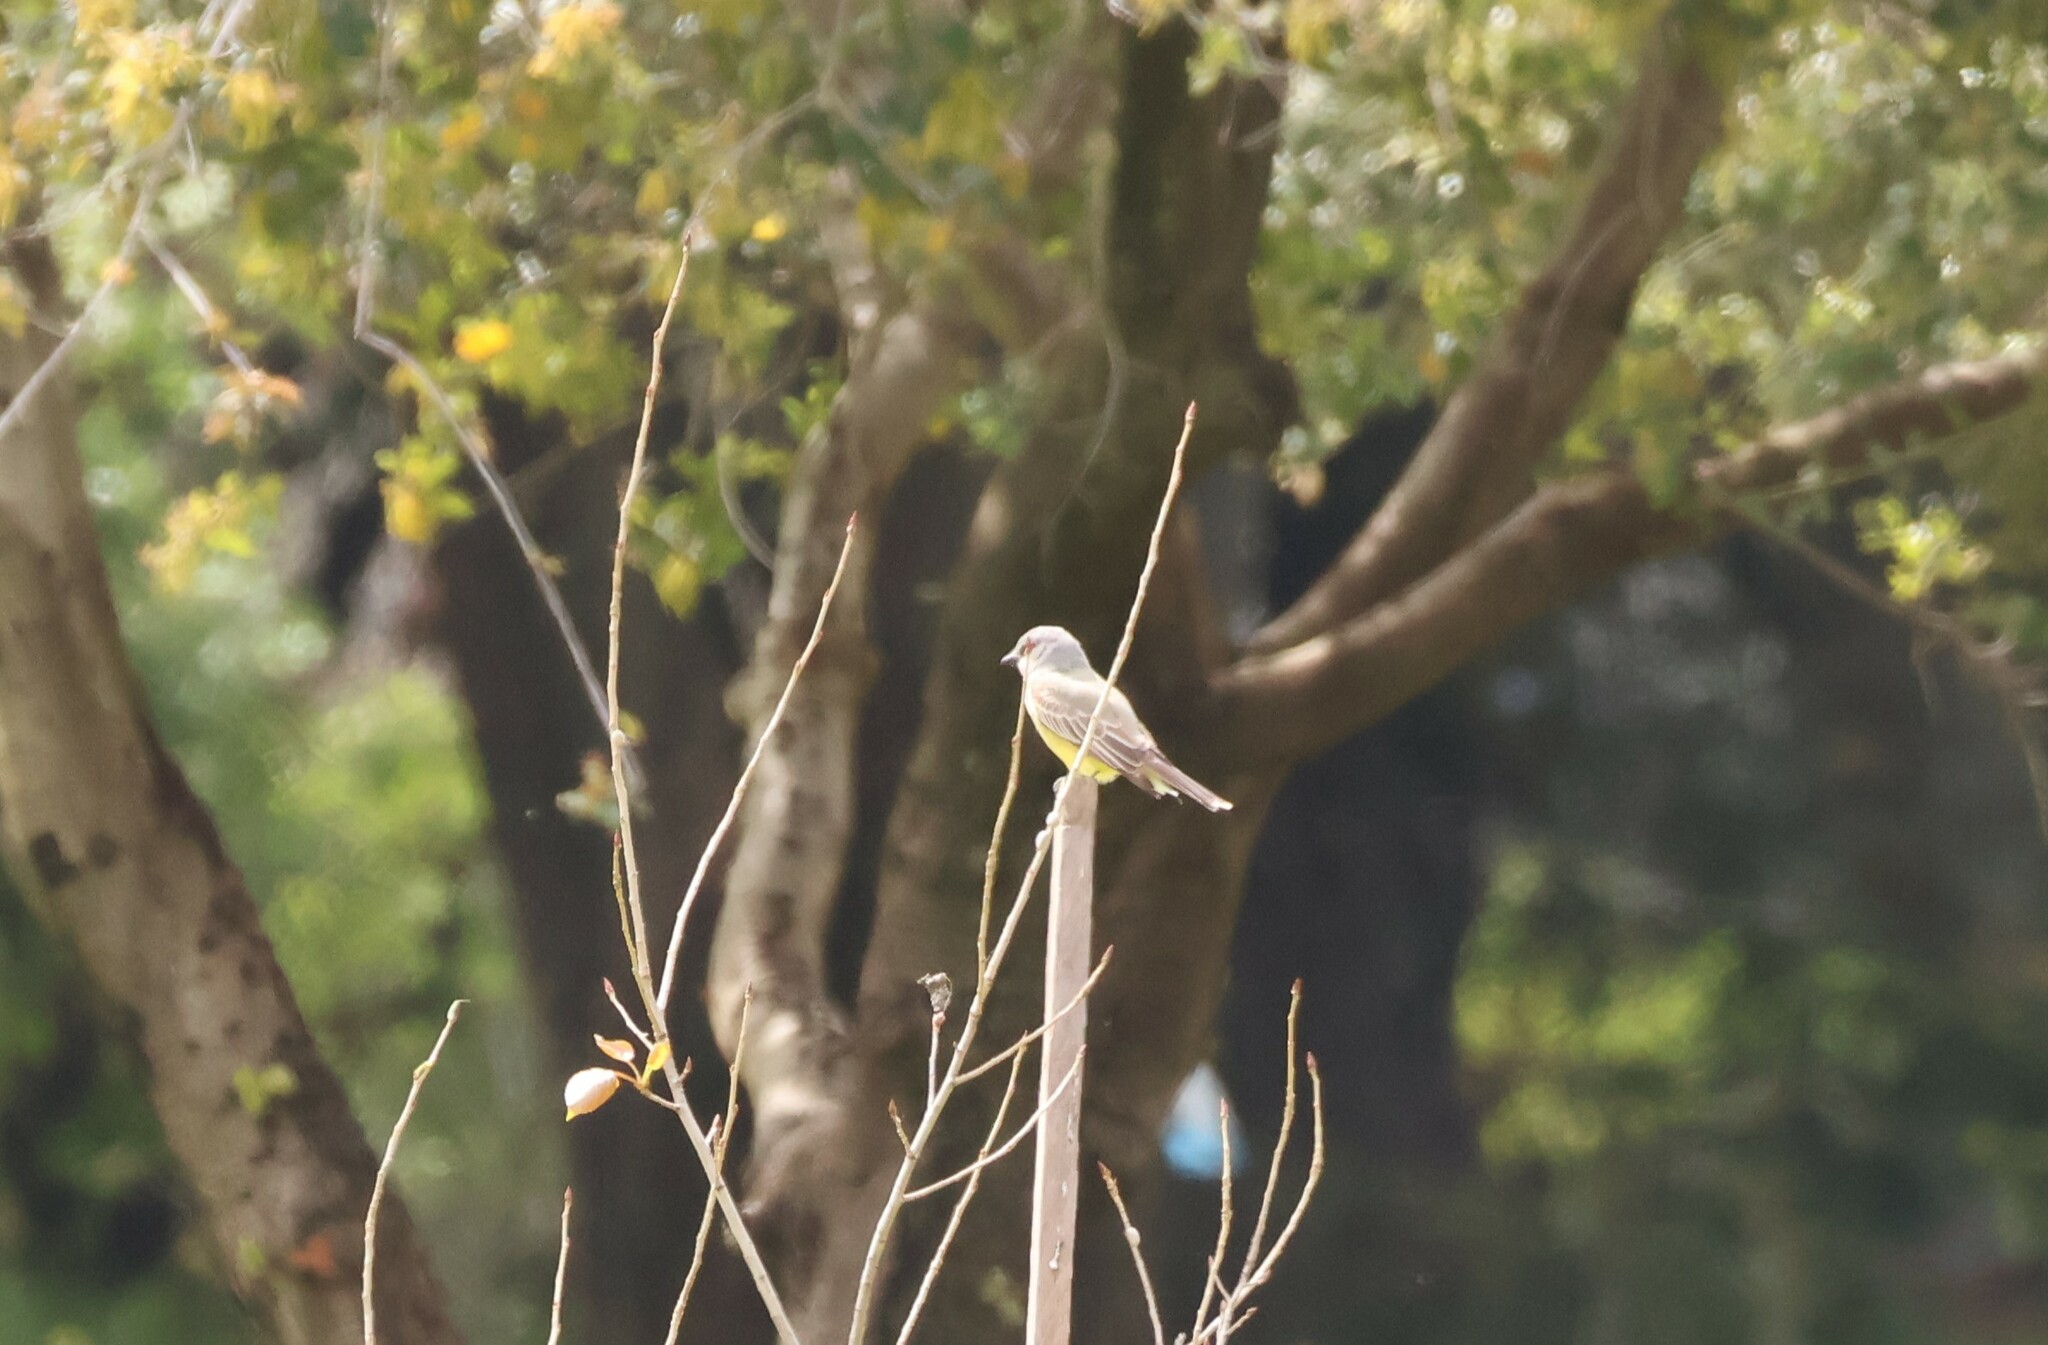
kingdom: Animalia
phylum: Chordata
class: Aves
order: Passeriformes
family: Tyrannidae
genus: Tyrannus
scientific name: Tyrannus vociferans
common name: Cassin's kingbird
